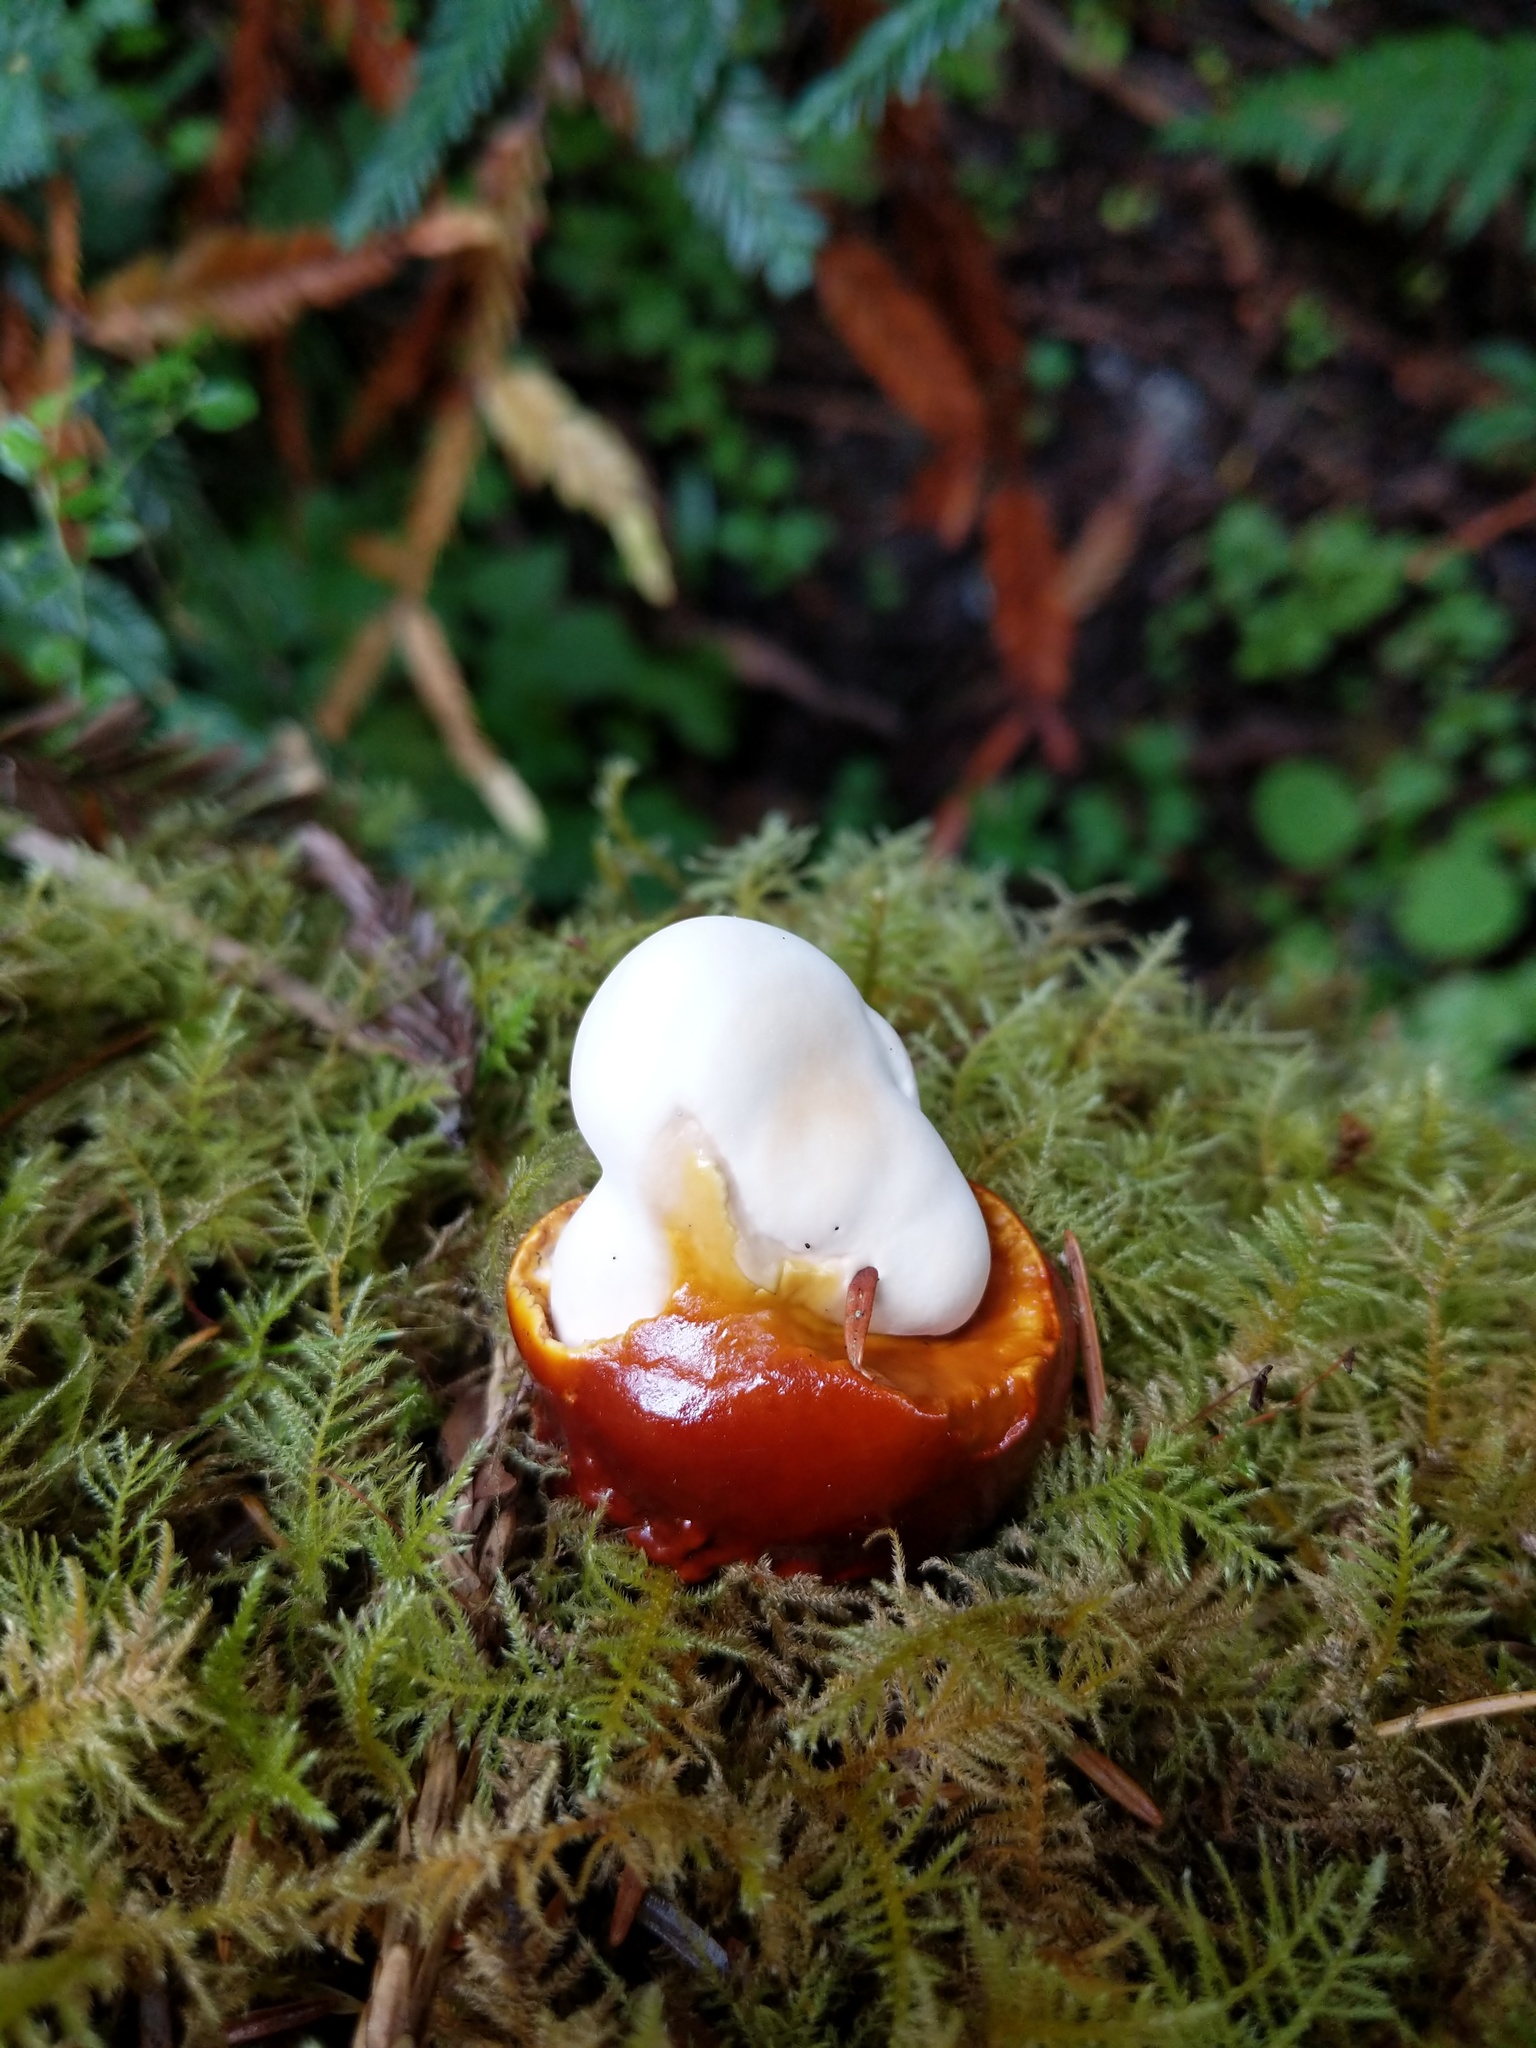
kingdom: Fungi
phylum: Basidiomycota
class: Agaricomycetes
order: Polyporales
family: Polyporaceae
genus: Ganoderma
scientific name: Ganoderma oregonense
